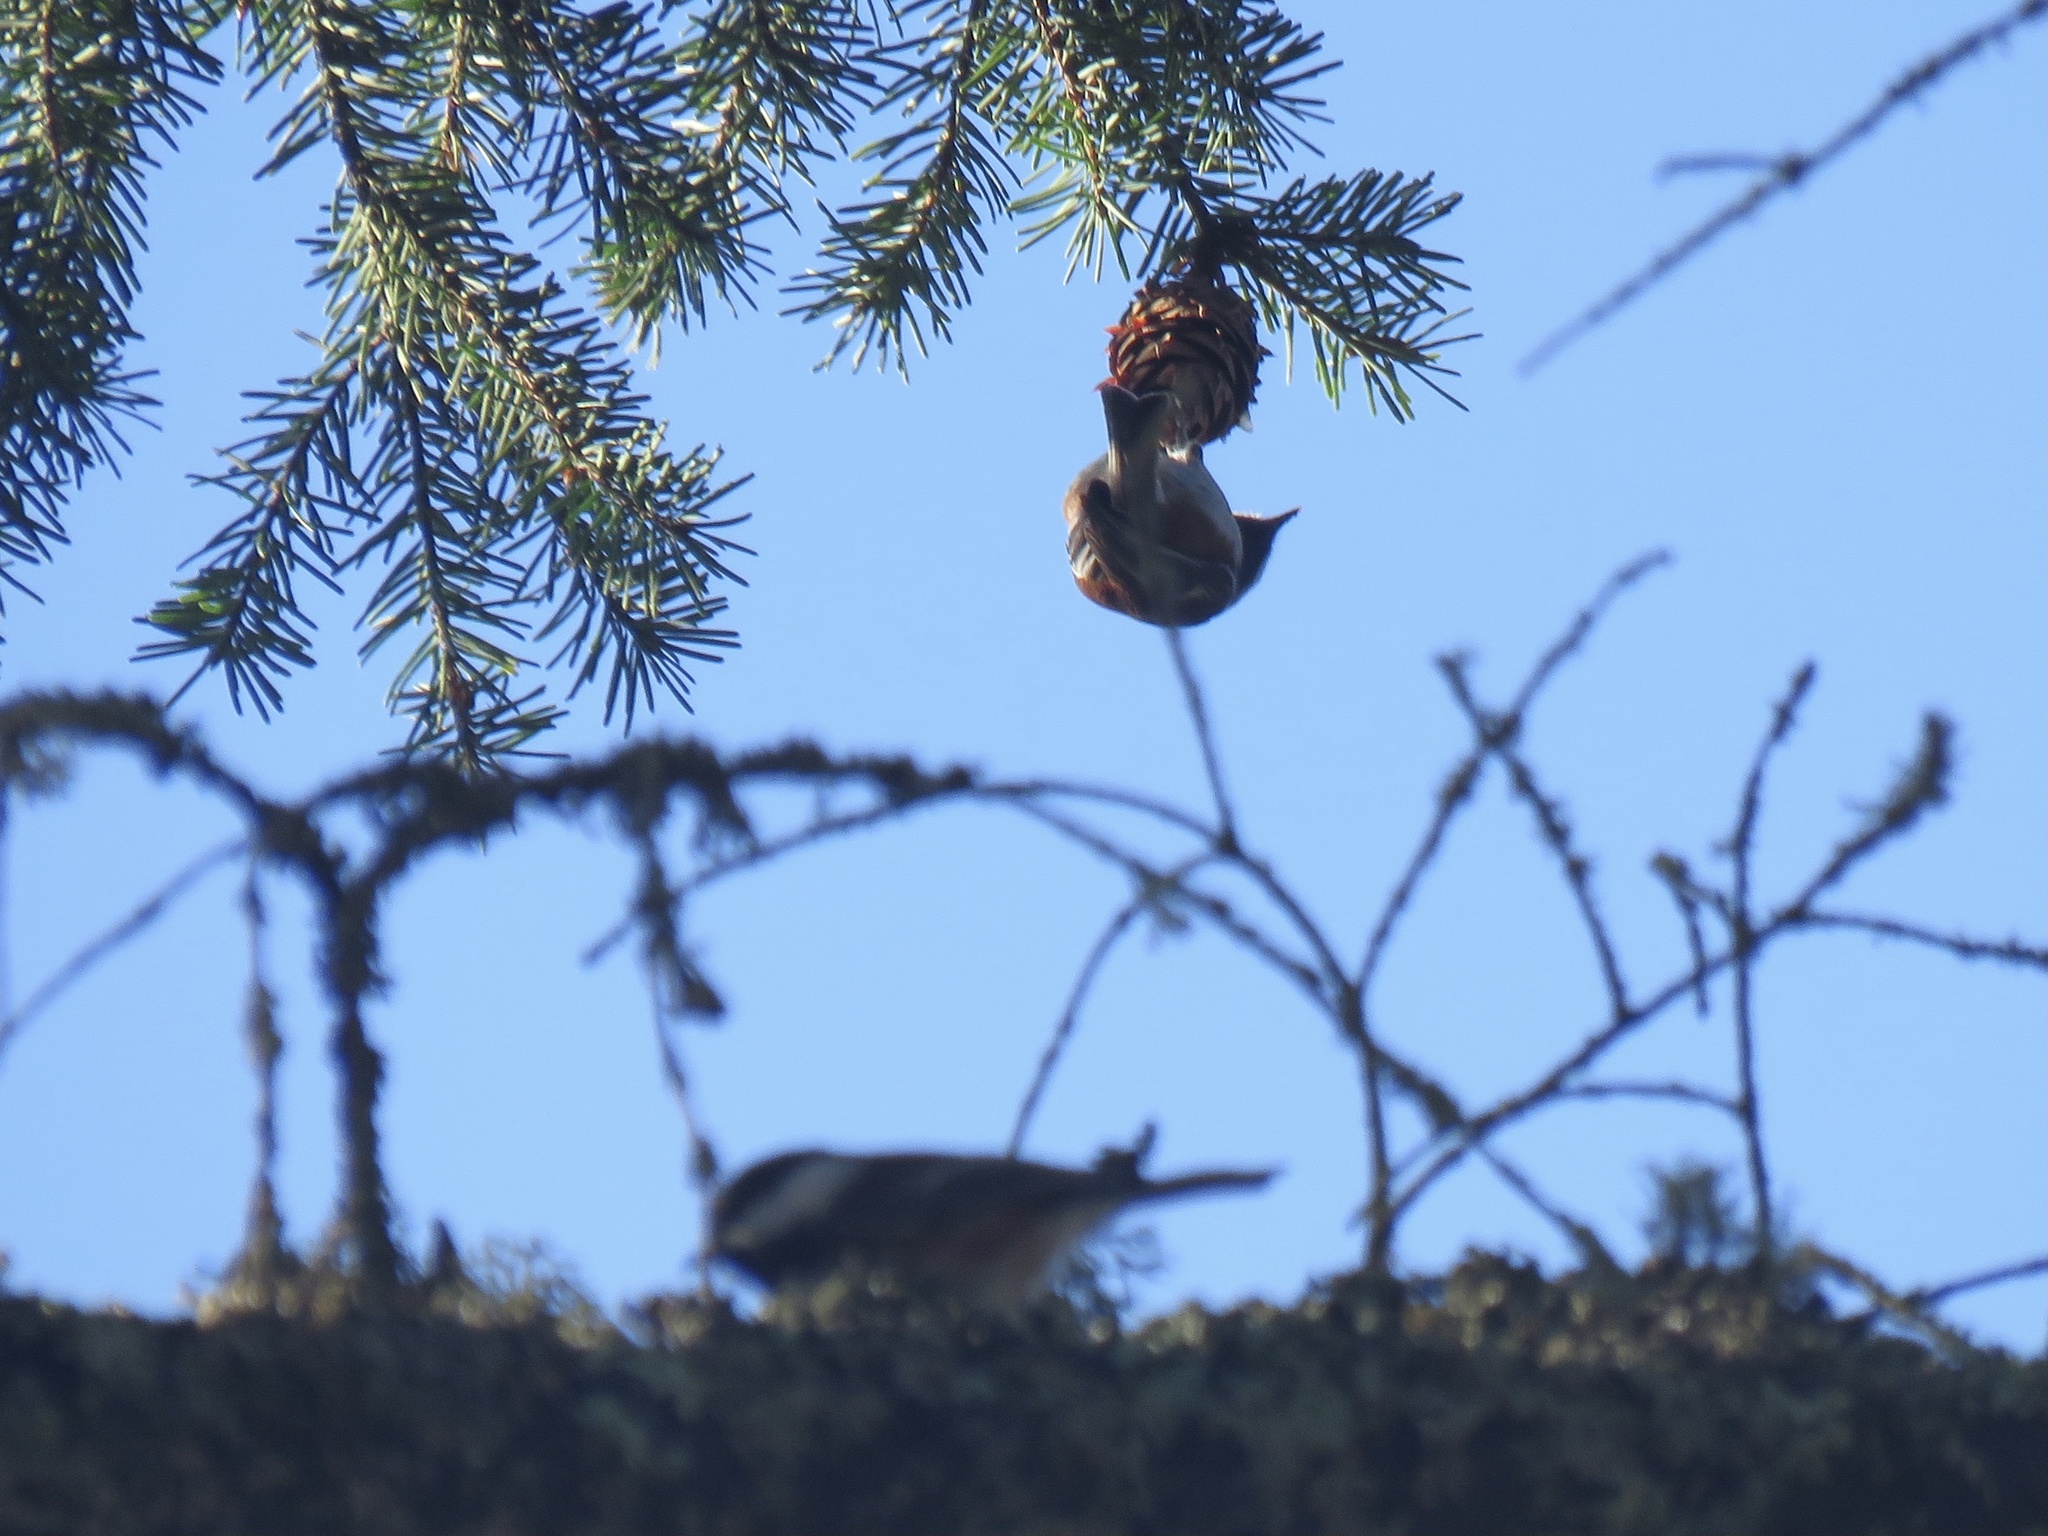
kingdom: Animalia
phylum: Chordata
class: Aves
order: Passeriformes
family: Paridae
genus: Poecile
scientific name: Poecile rufescens
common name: Chestnut-backed chickadee
